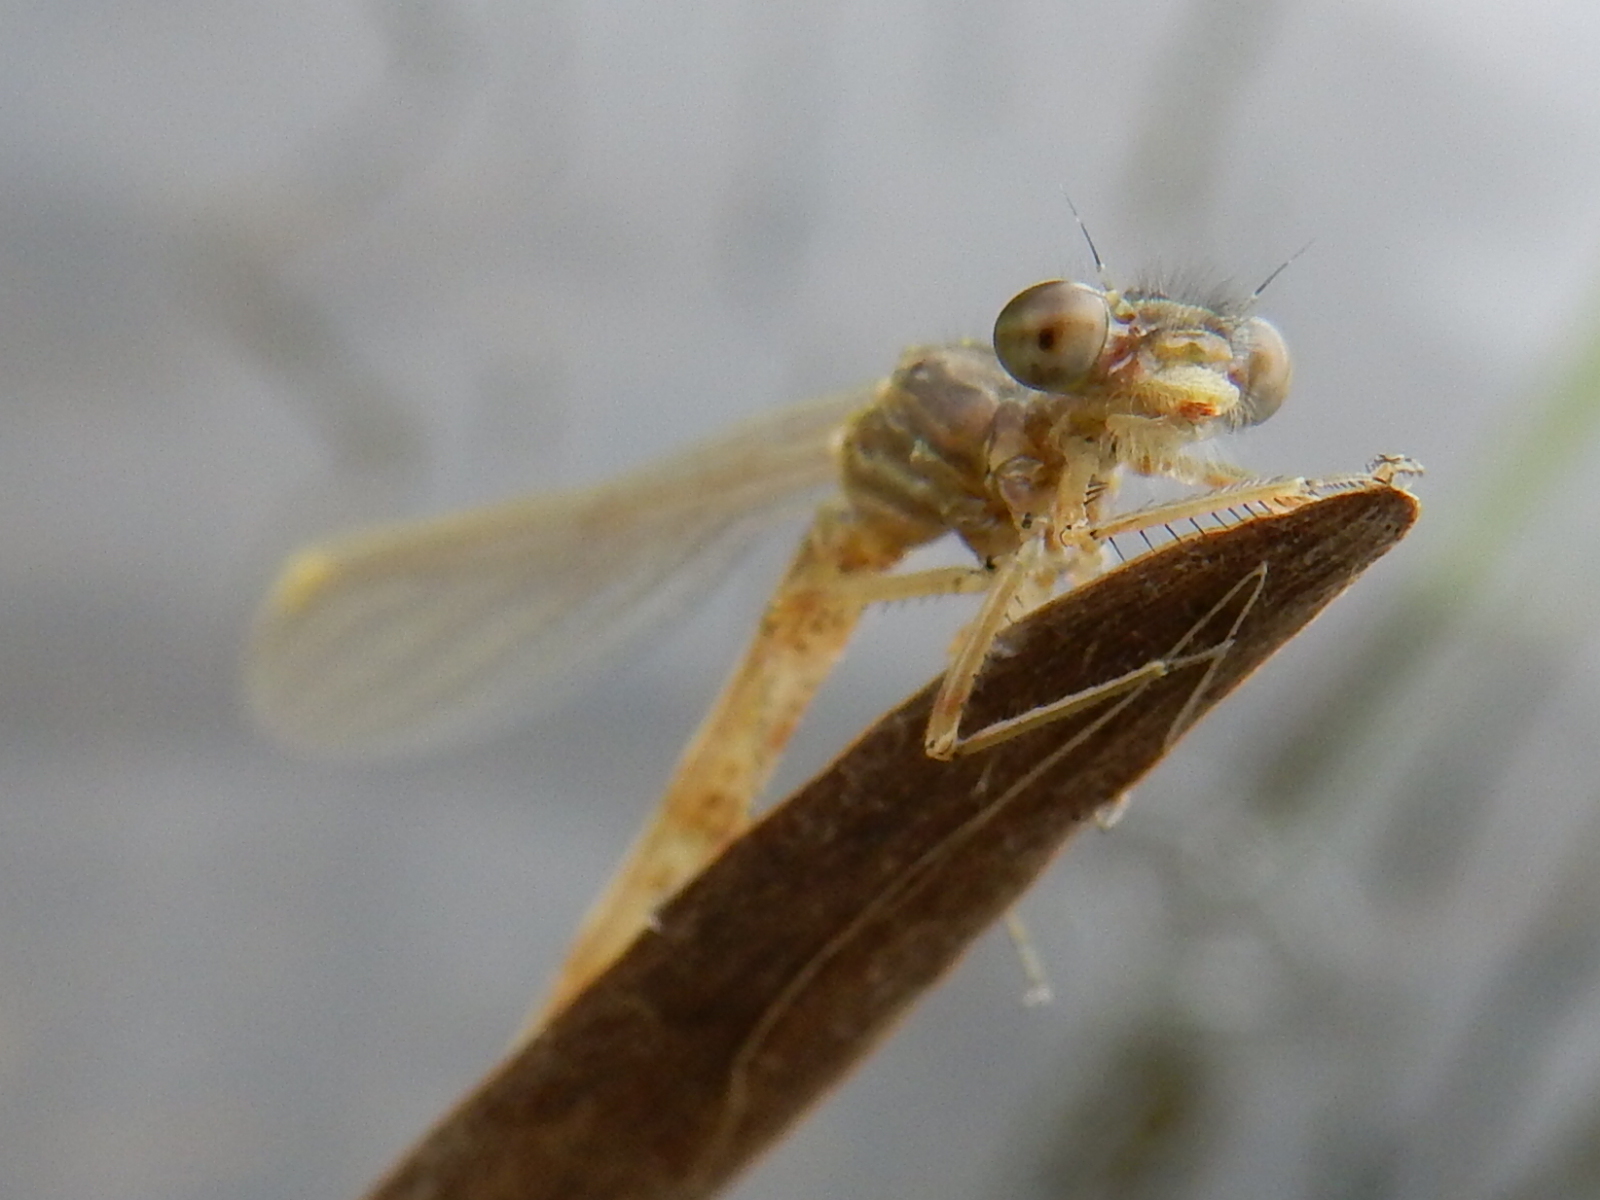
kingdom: Animalia
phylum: Arthropoda
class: Insecta
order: Odonata
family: Coenagrionidae
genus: Xanthocnemis
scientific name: Xanthocnemis zealandica
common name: Common redcoat damselfly
